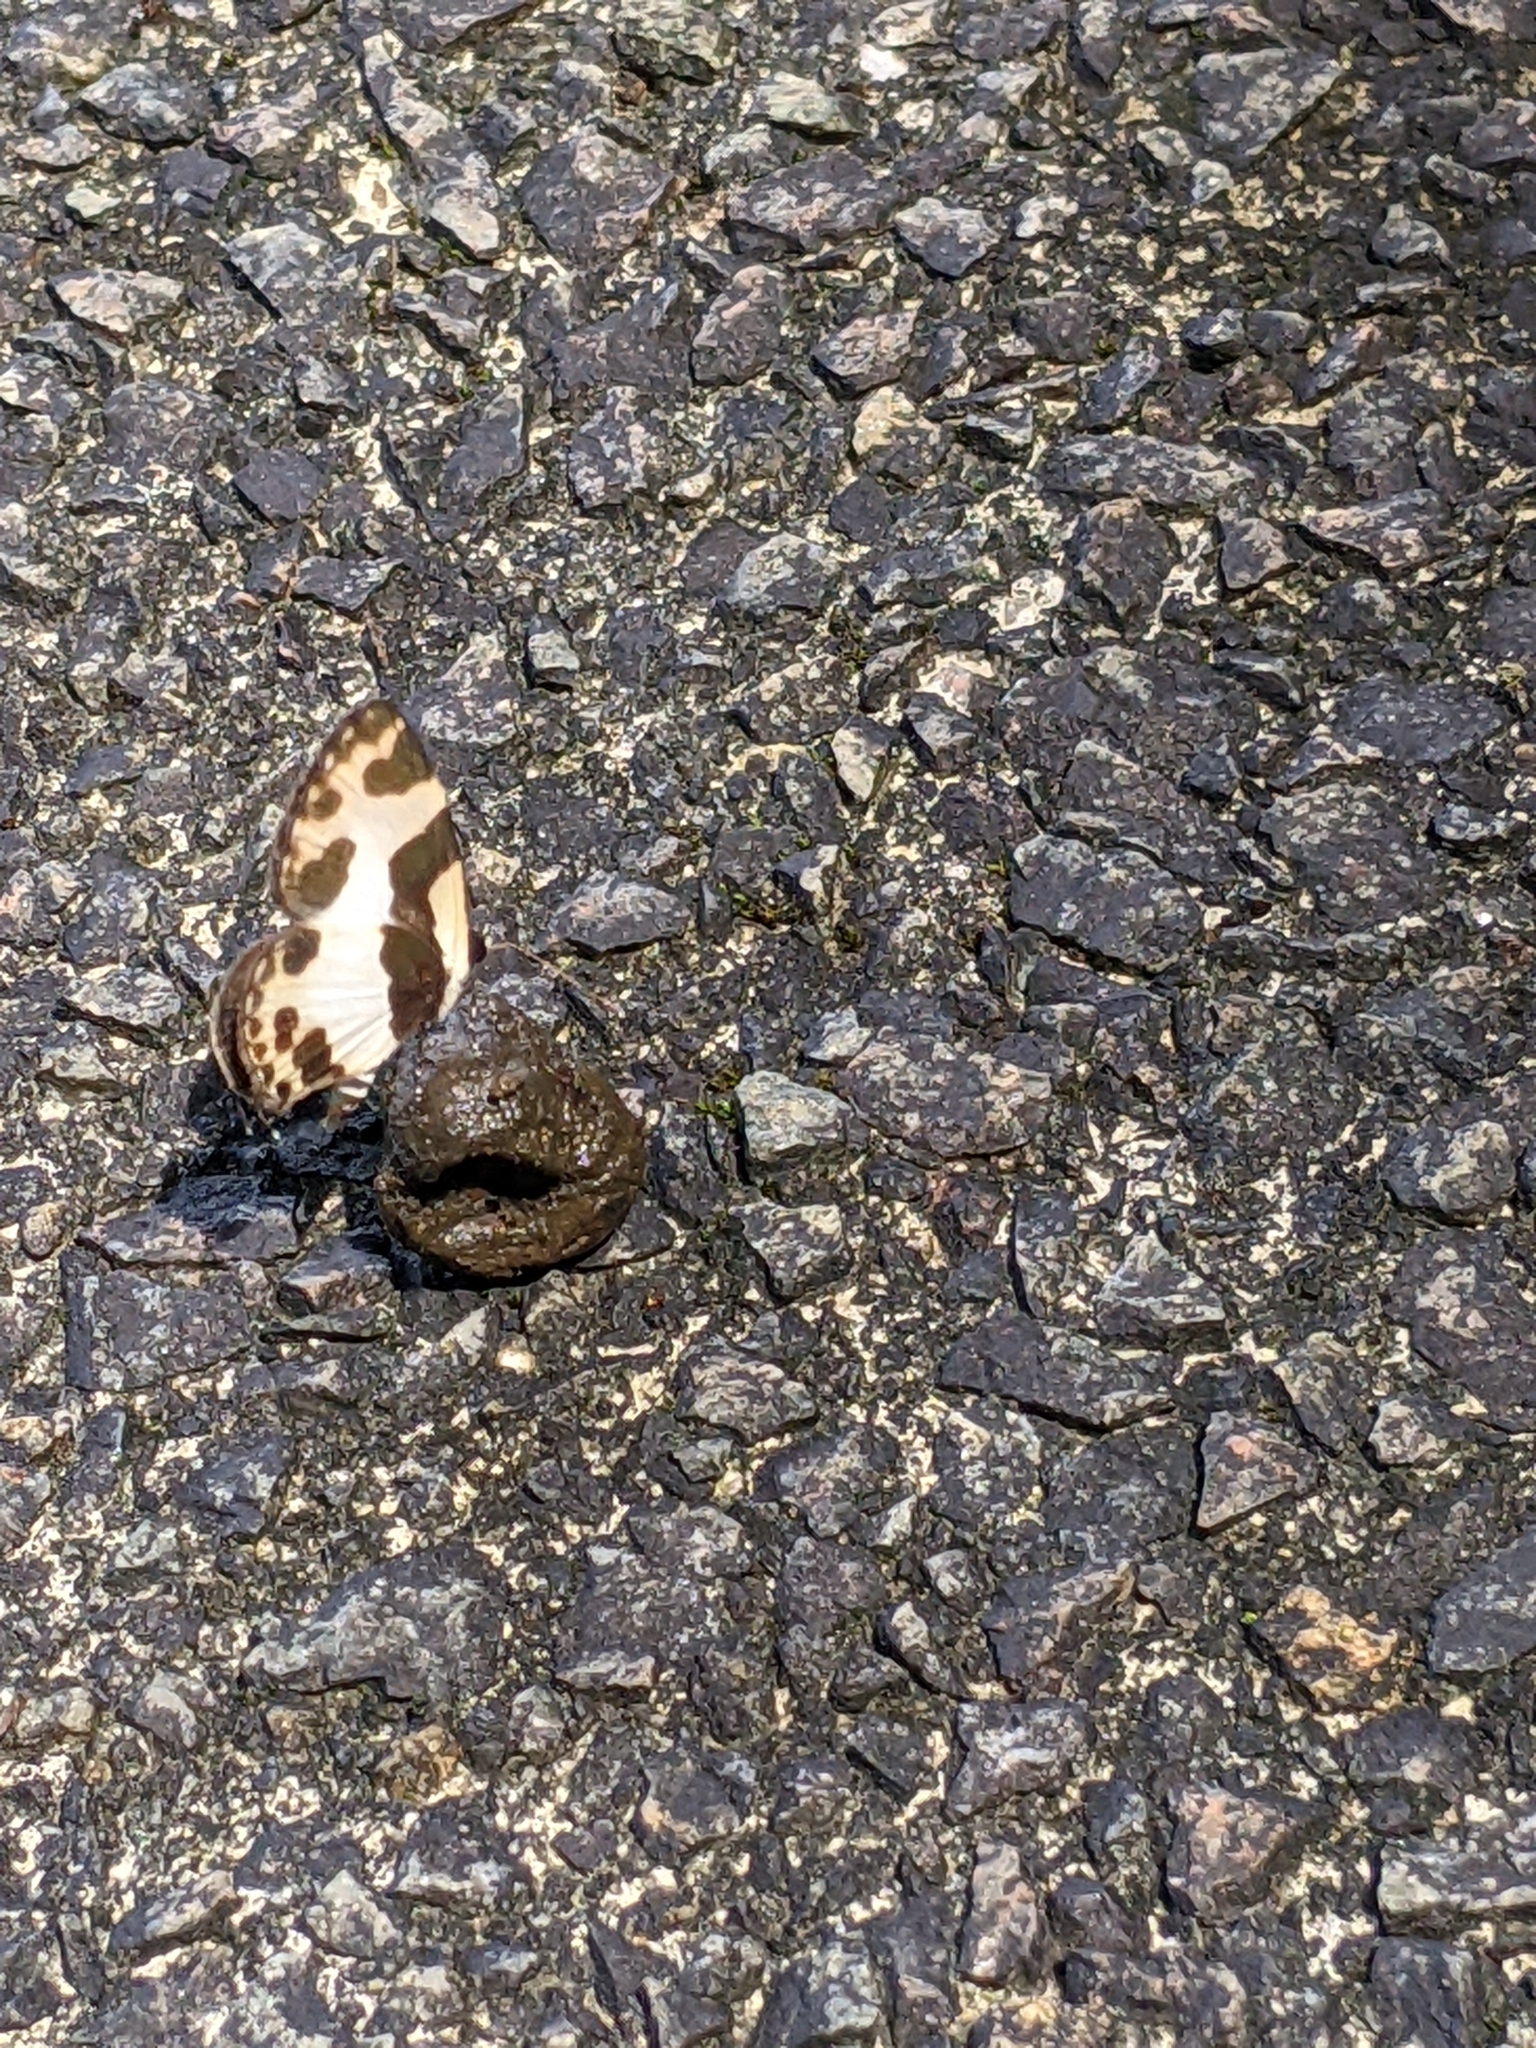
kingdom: Animalia
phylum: Arthropoda
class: Insecta
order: Lepidoptera
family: Lycaenidae
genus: Caleta
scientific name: Caleta elna
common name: Elbowed pierrot
